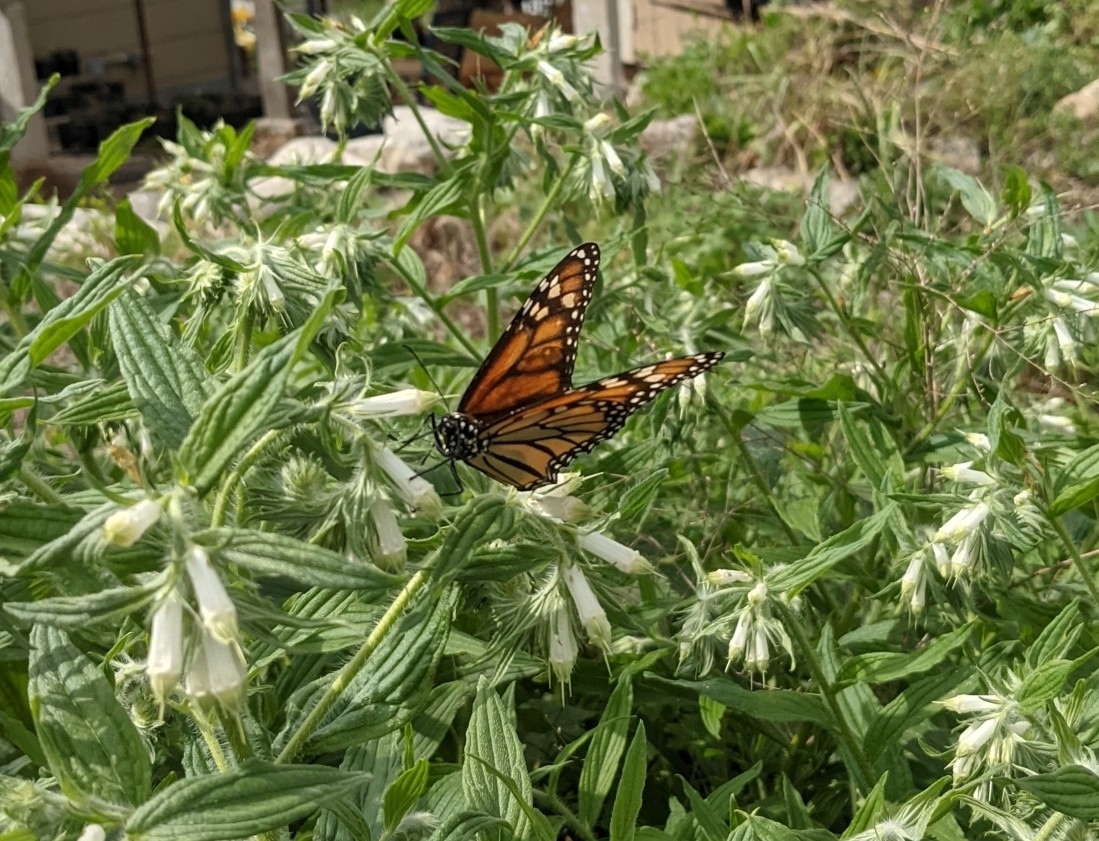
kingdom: Animalia
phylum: Arthropoda
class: Insecta
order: Lepidoptera
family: Nymphalidae
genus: Danaus
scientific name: Danaus plexippus
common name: Monarch
